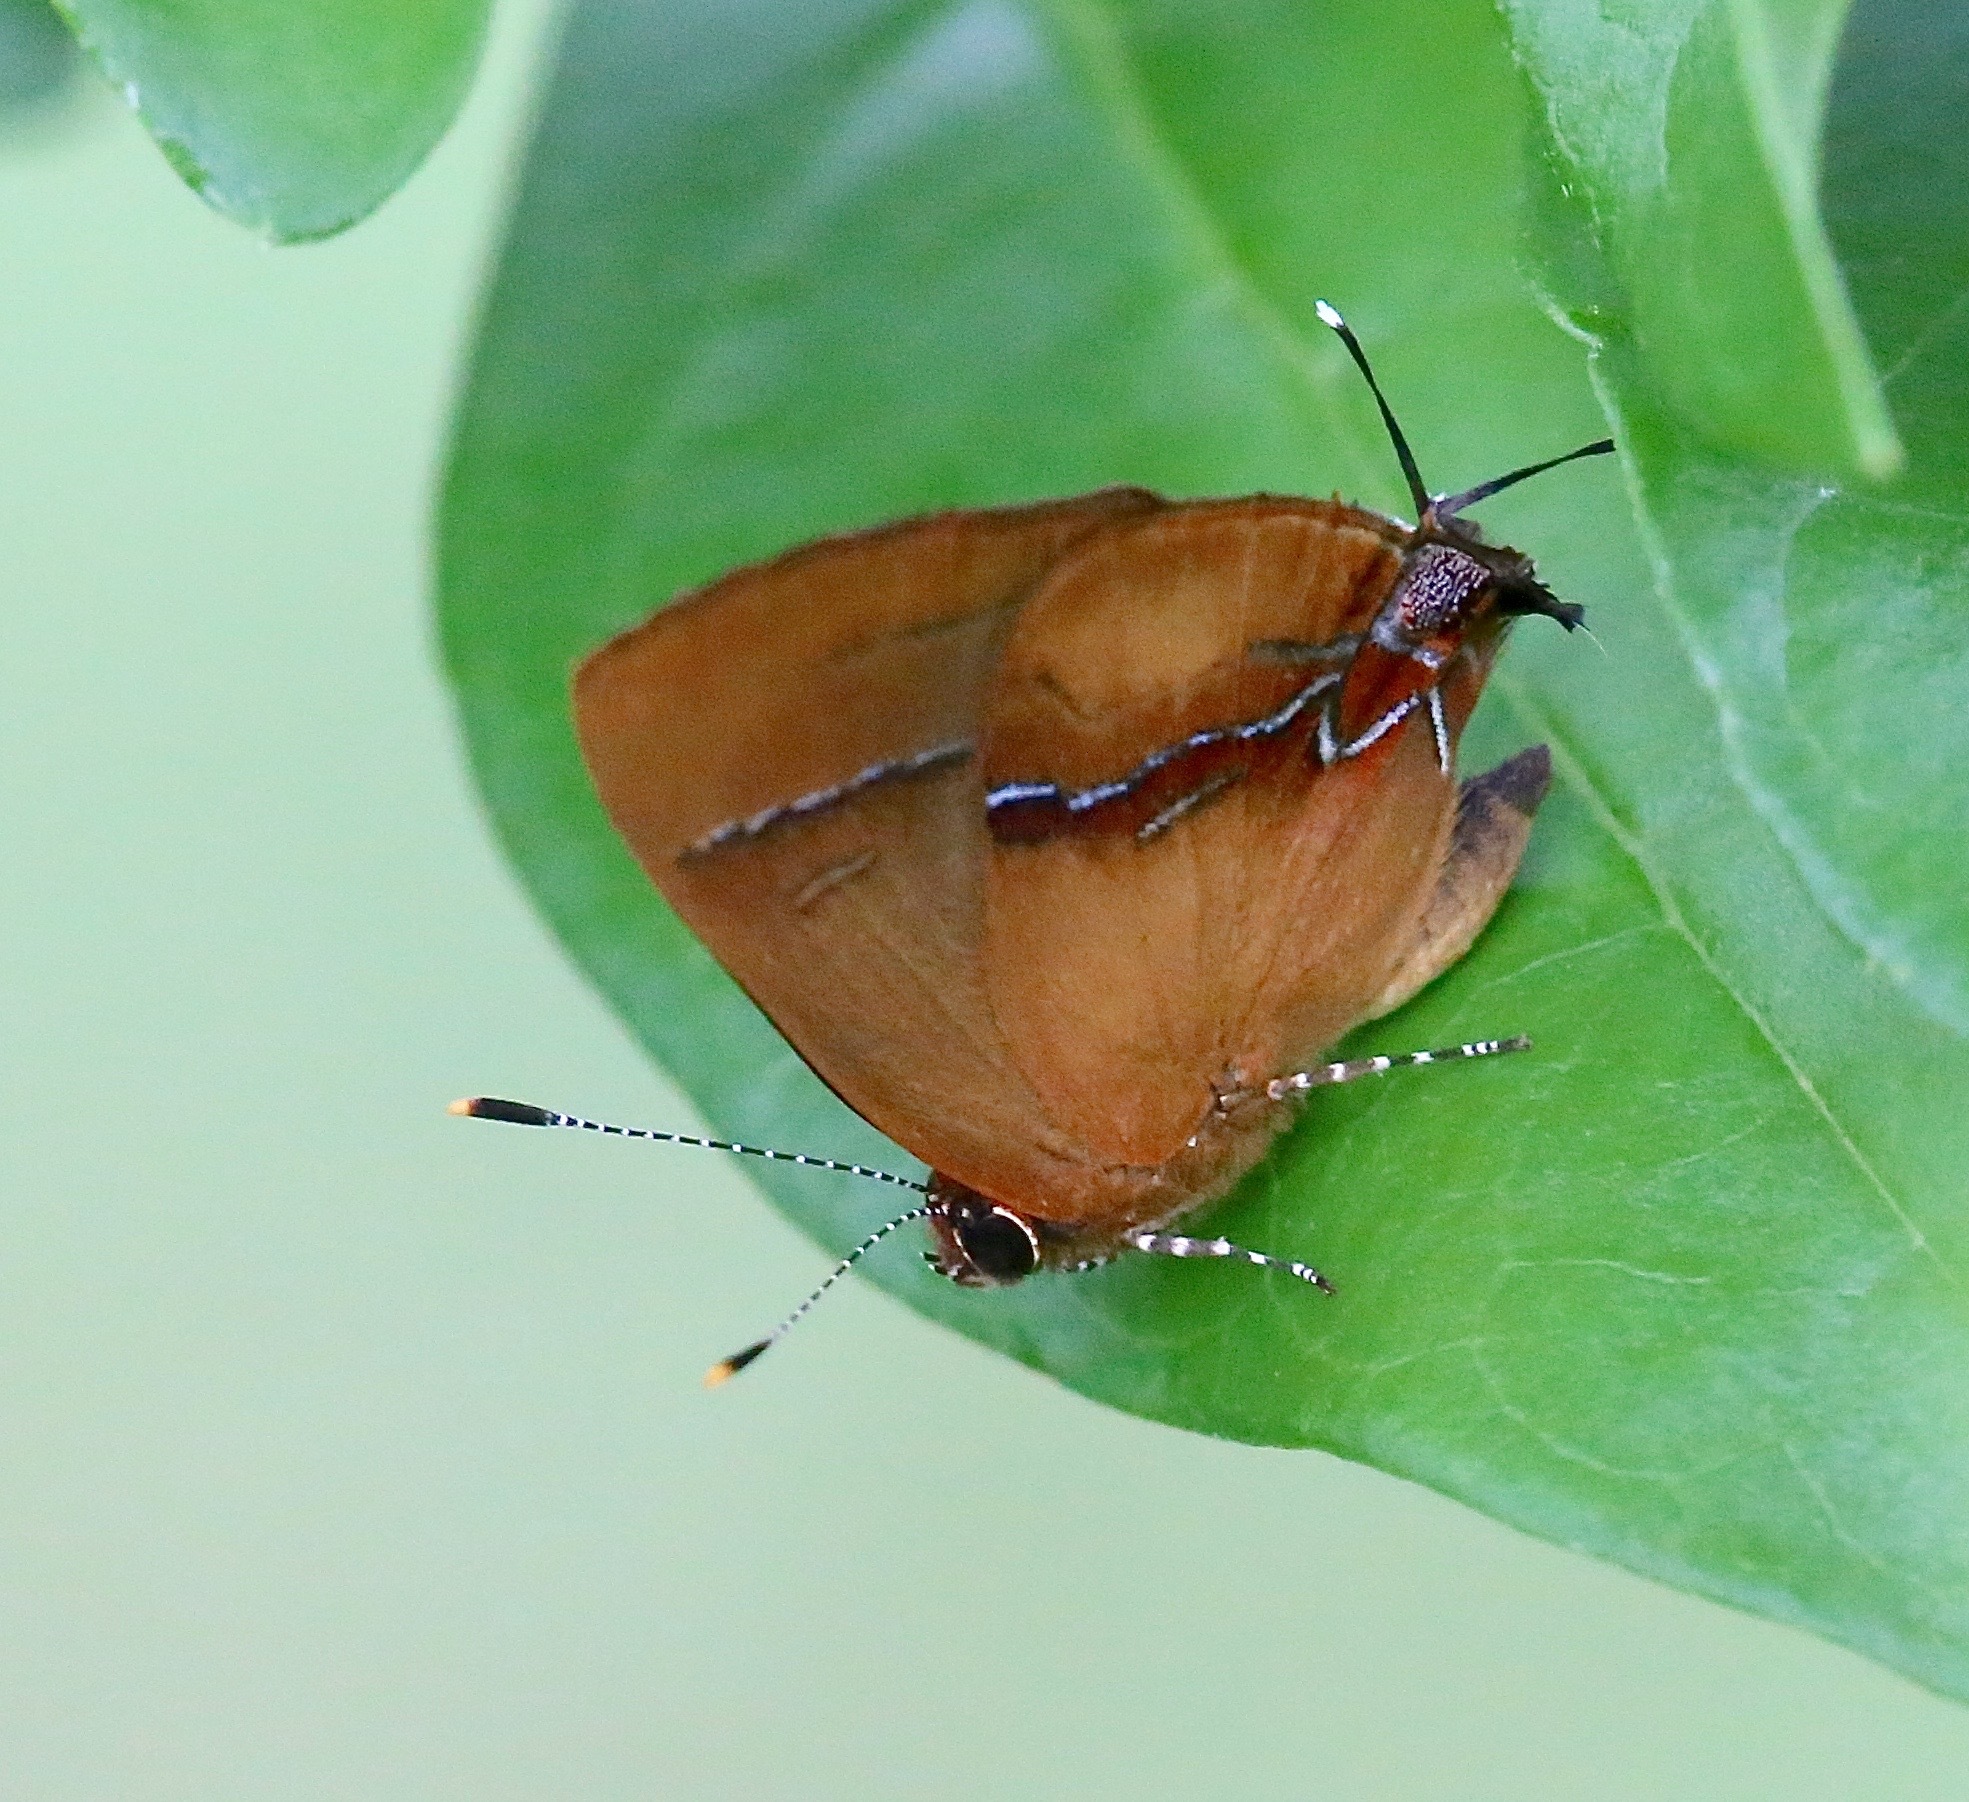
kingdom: Animalia
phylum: Arthropoda
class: Insecta
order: Lepidoptera
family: Lycaenidae
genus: Thecla
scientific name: Thecla demonassa
